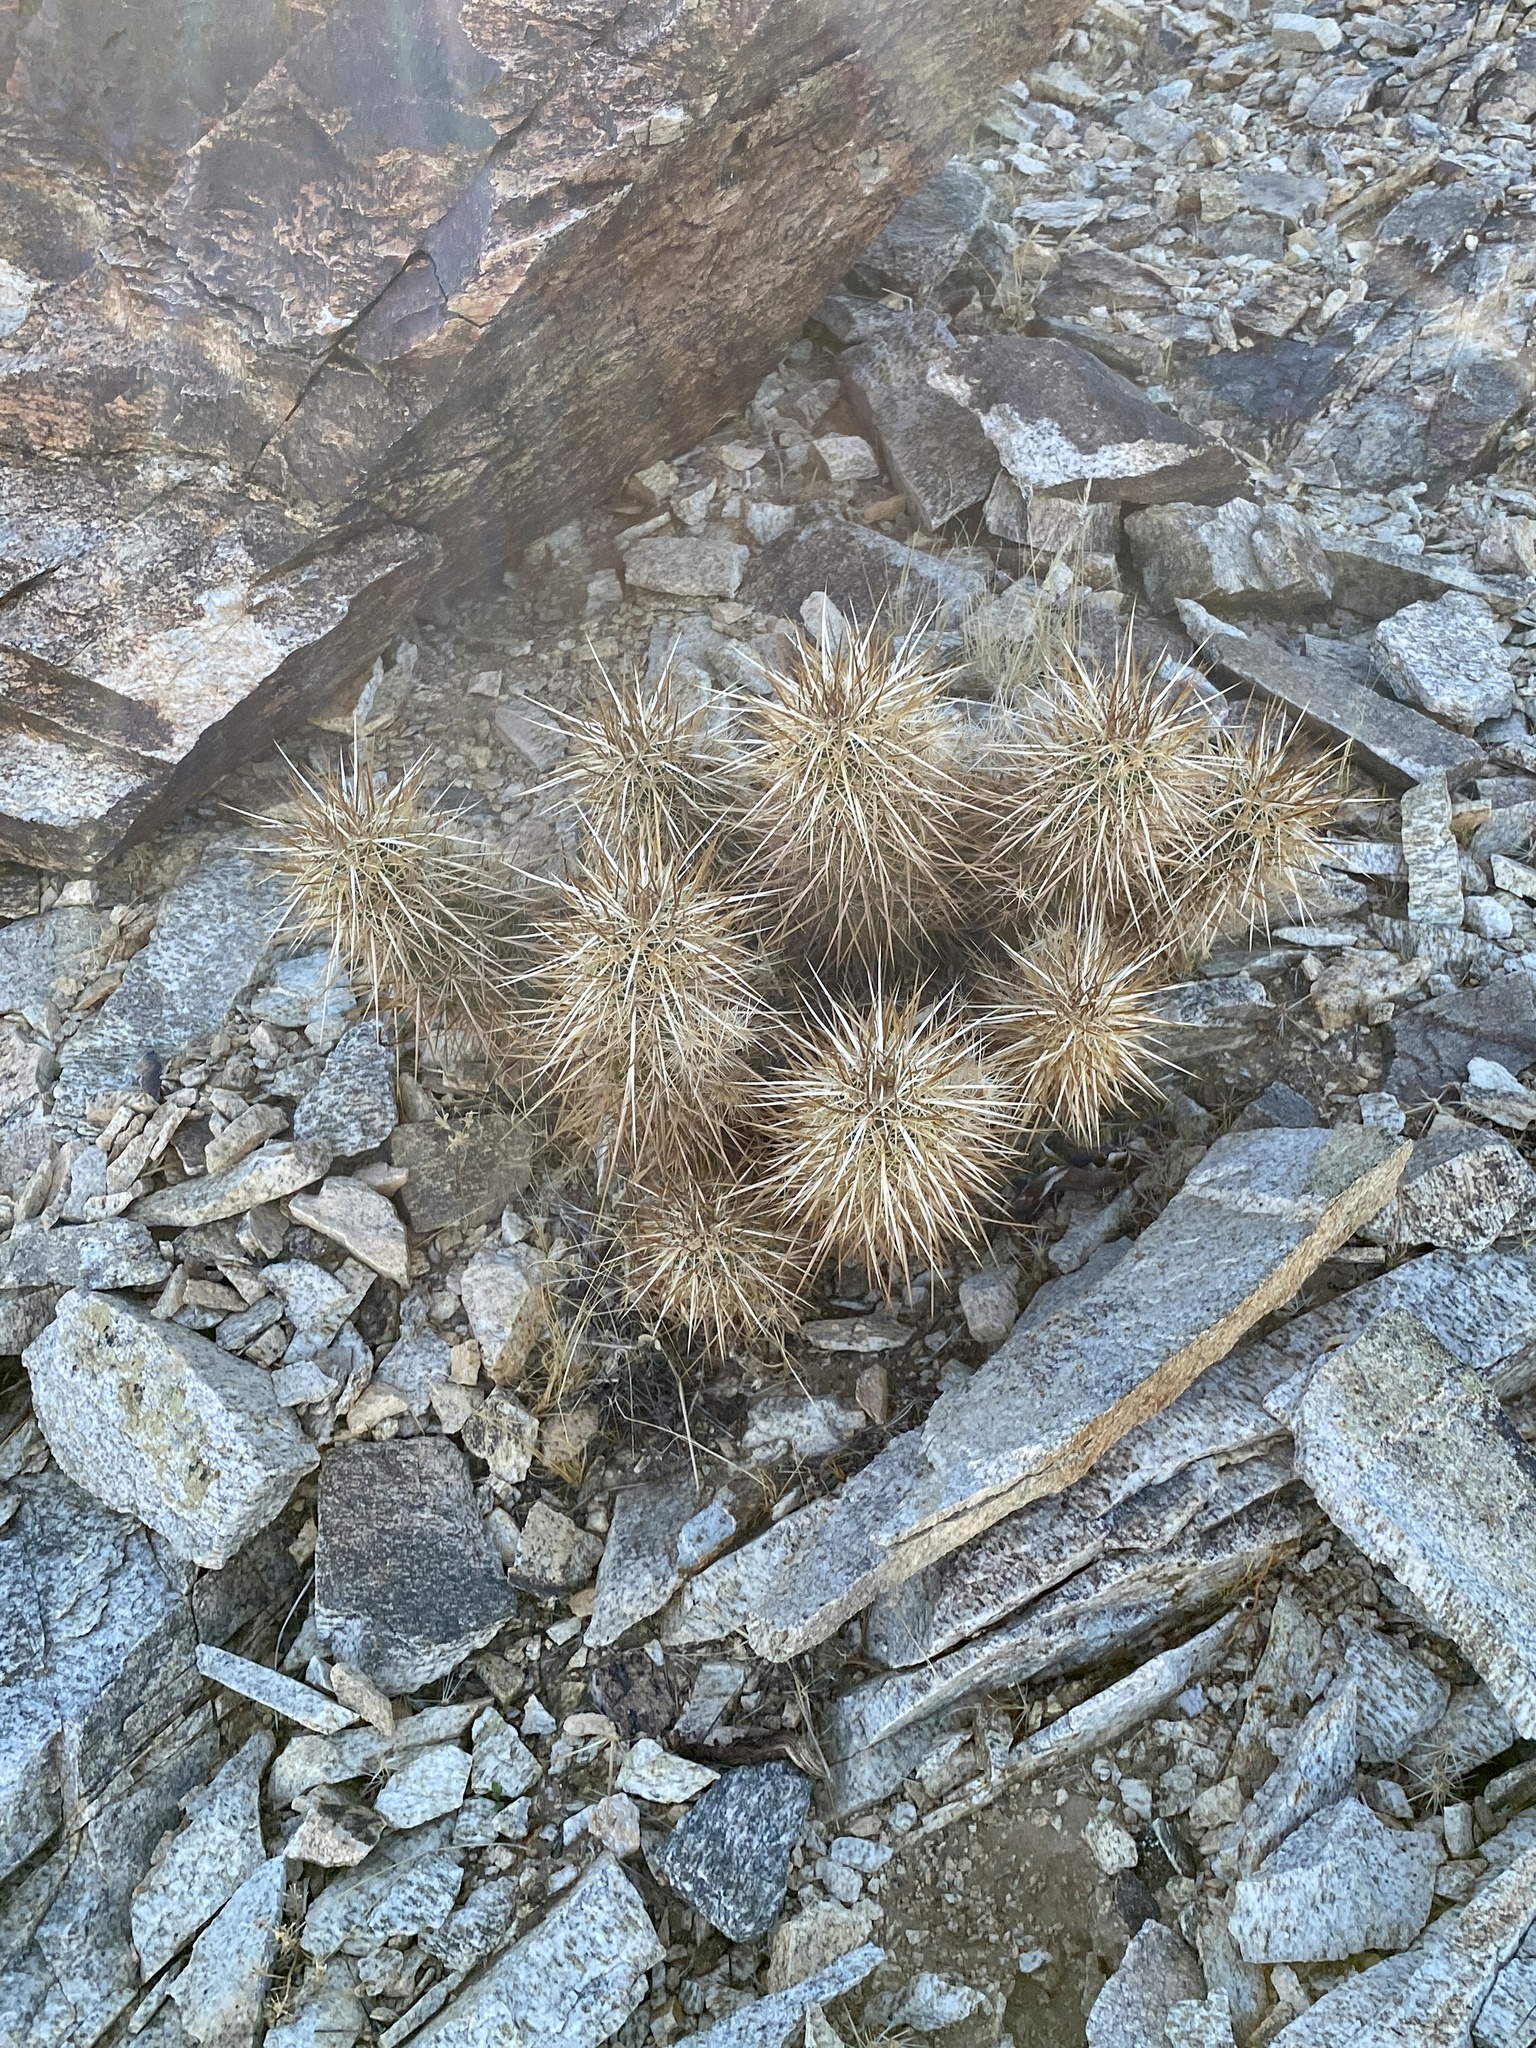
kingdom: Plantae
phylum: Tracheophyta
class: Magnoliopsida
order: Caryophyllales
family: Cactaceae
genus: Echinocereus
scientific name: Echinocereus engelmannii
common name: Engelmann's hedgehog cactus
